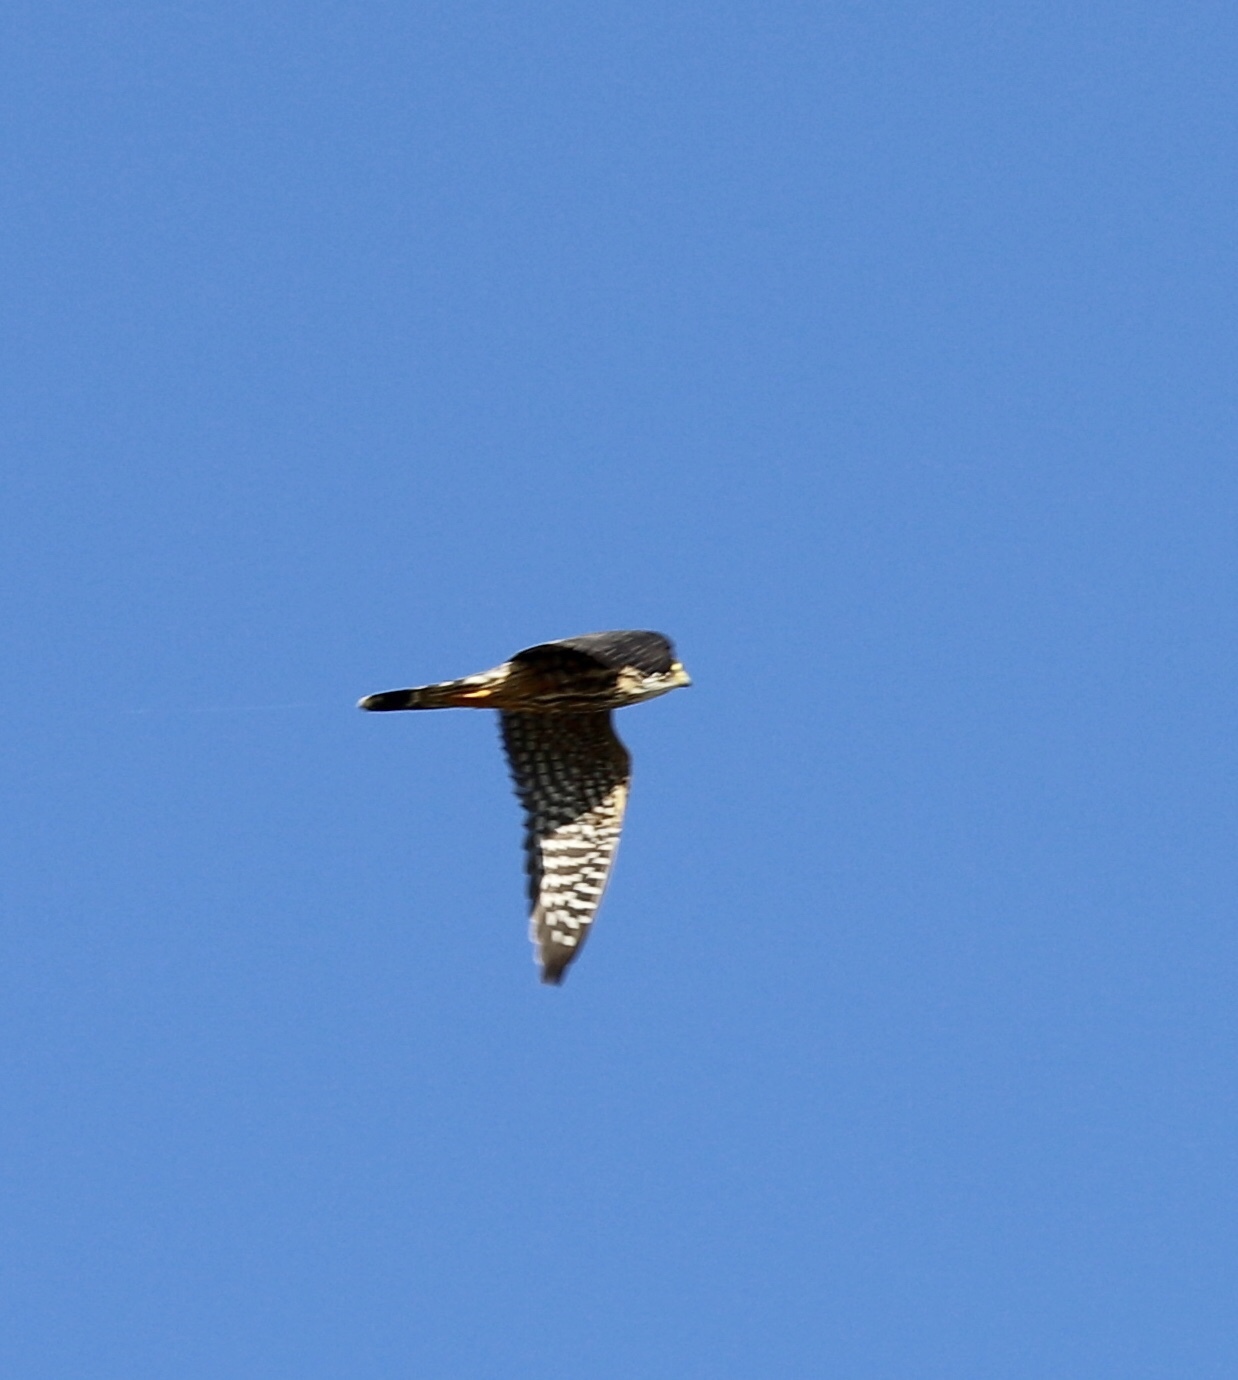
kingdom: Animalia
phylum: Chordata
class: Aves
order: Falconiformes
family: Falconidae
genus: Falco
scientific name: Falco columbarius
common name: Merlin
